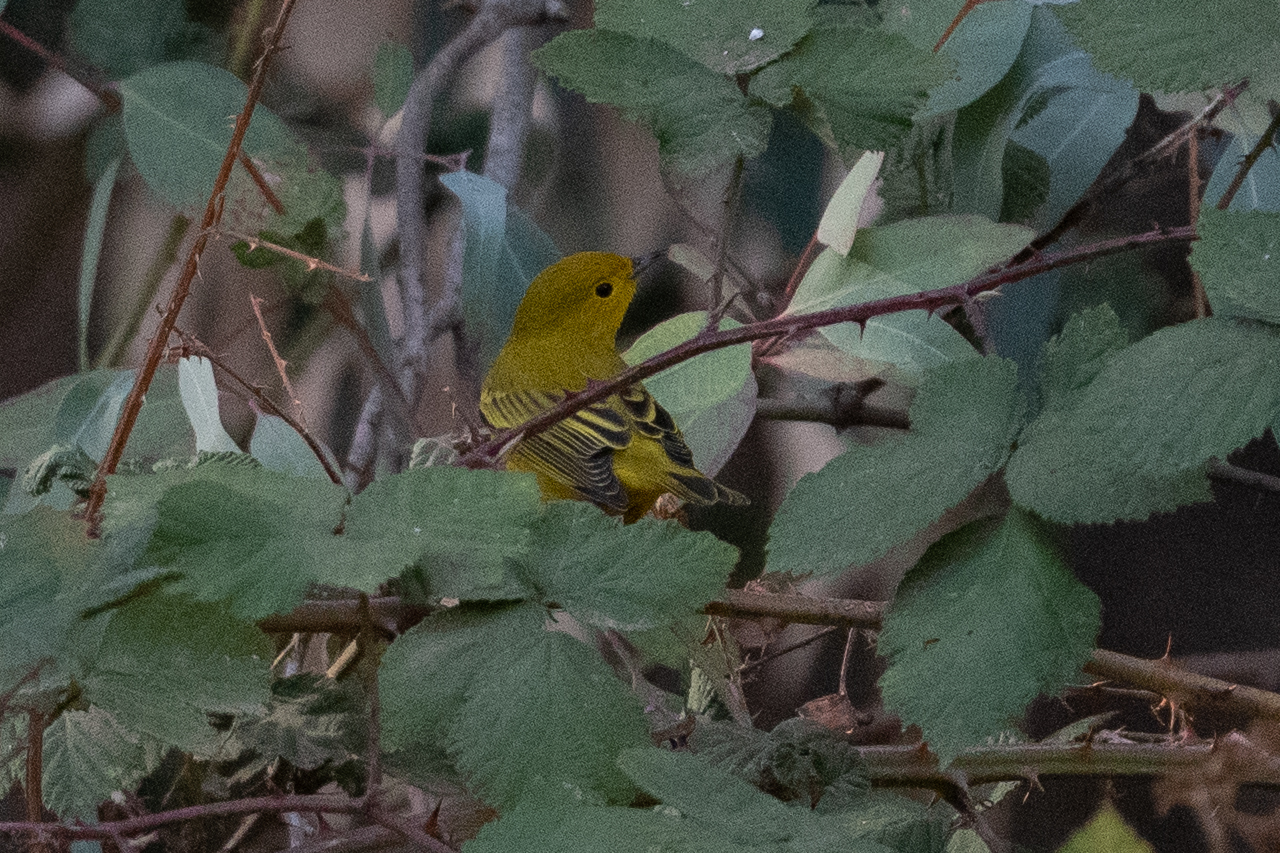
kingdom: Animalia
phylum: Chordata
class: Aves
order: Passeriformes
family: Parulidae
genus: Setophaga
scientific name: Setophaga petechia
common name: Yellow warbler
